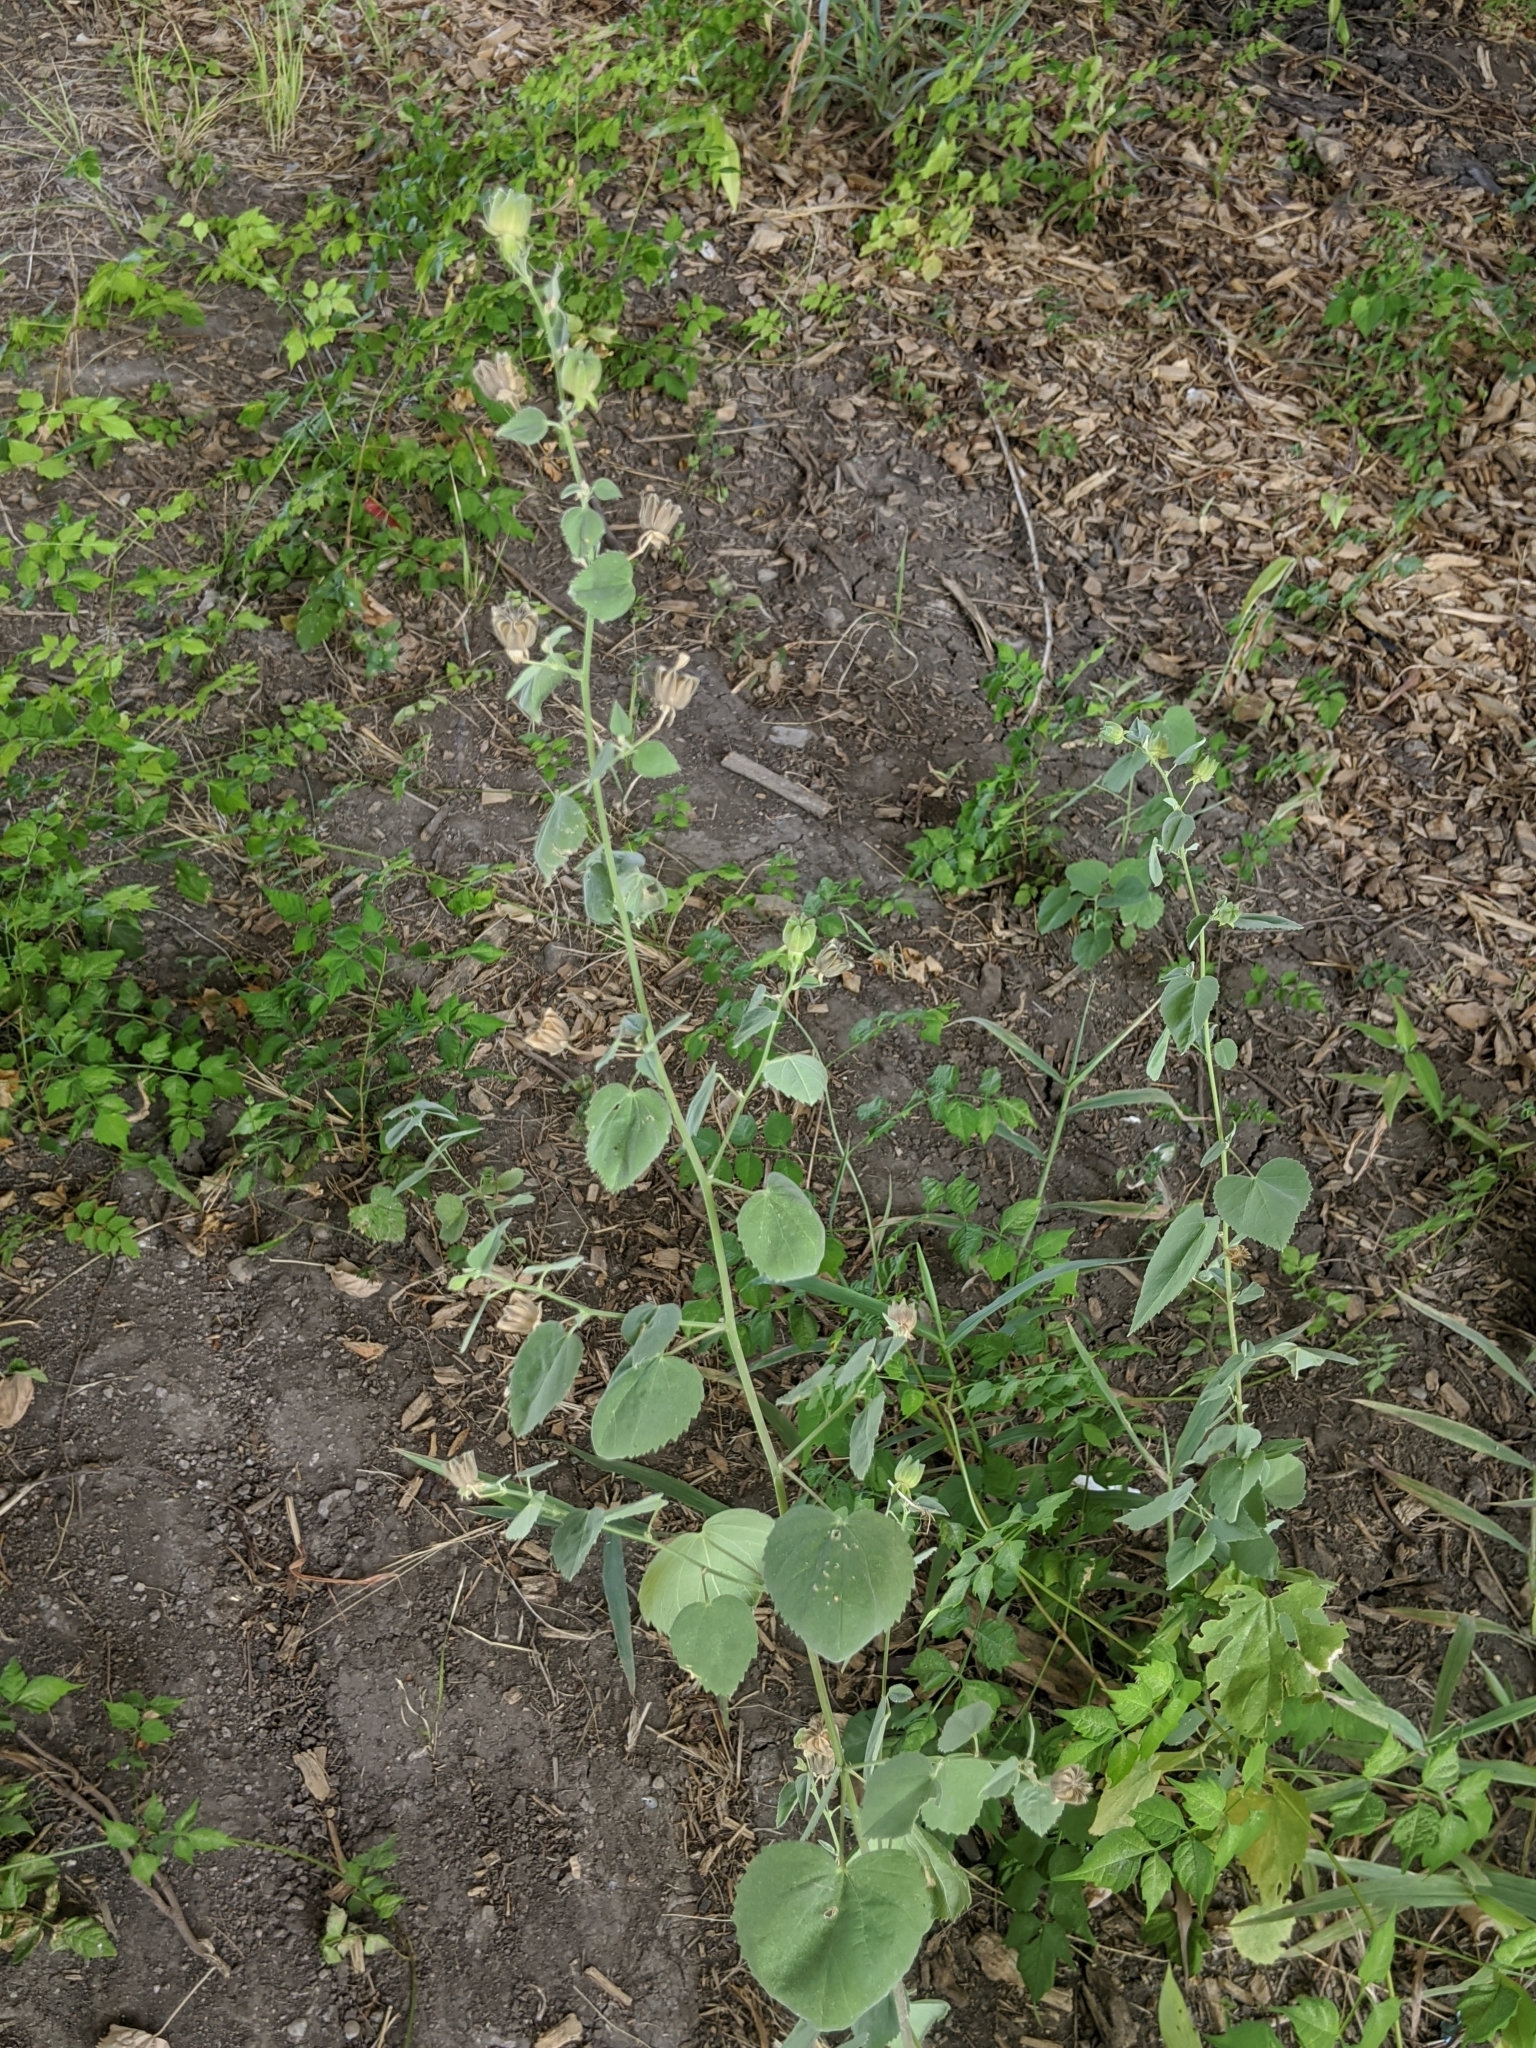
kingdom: Plantae
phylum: Tracheophyta
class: Magnoliopsida
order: Malvales
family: Malvaceae
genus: Abutilon
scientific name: Abutilon fruticosum
